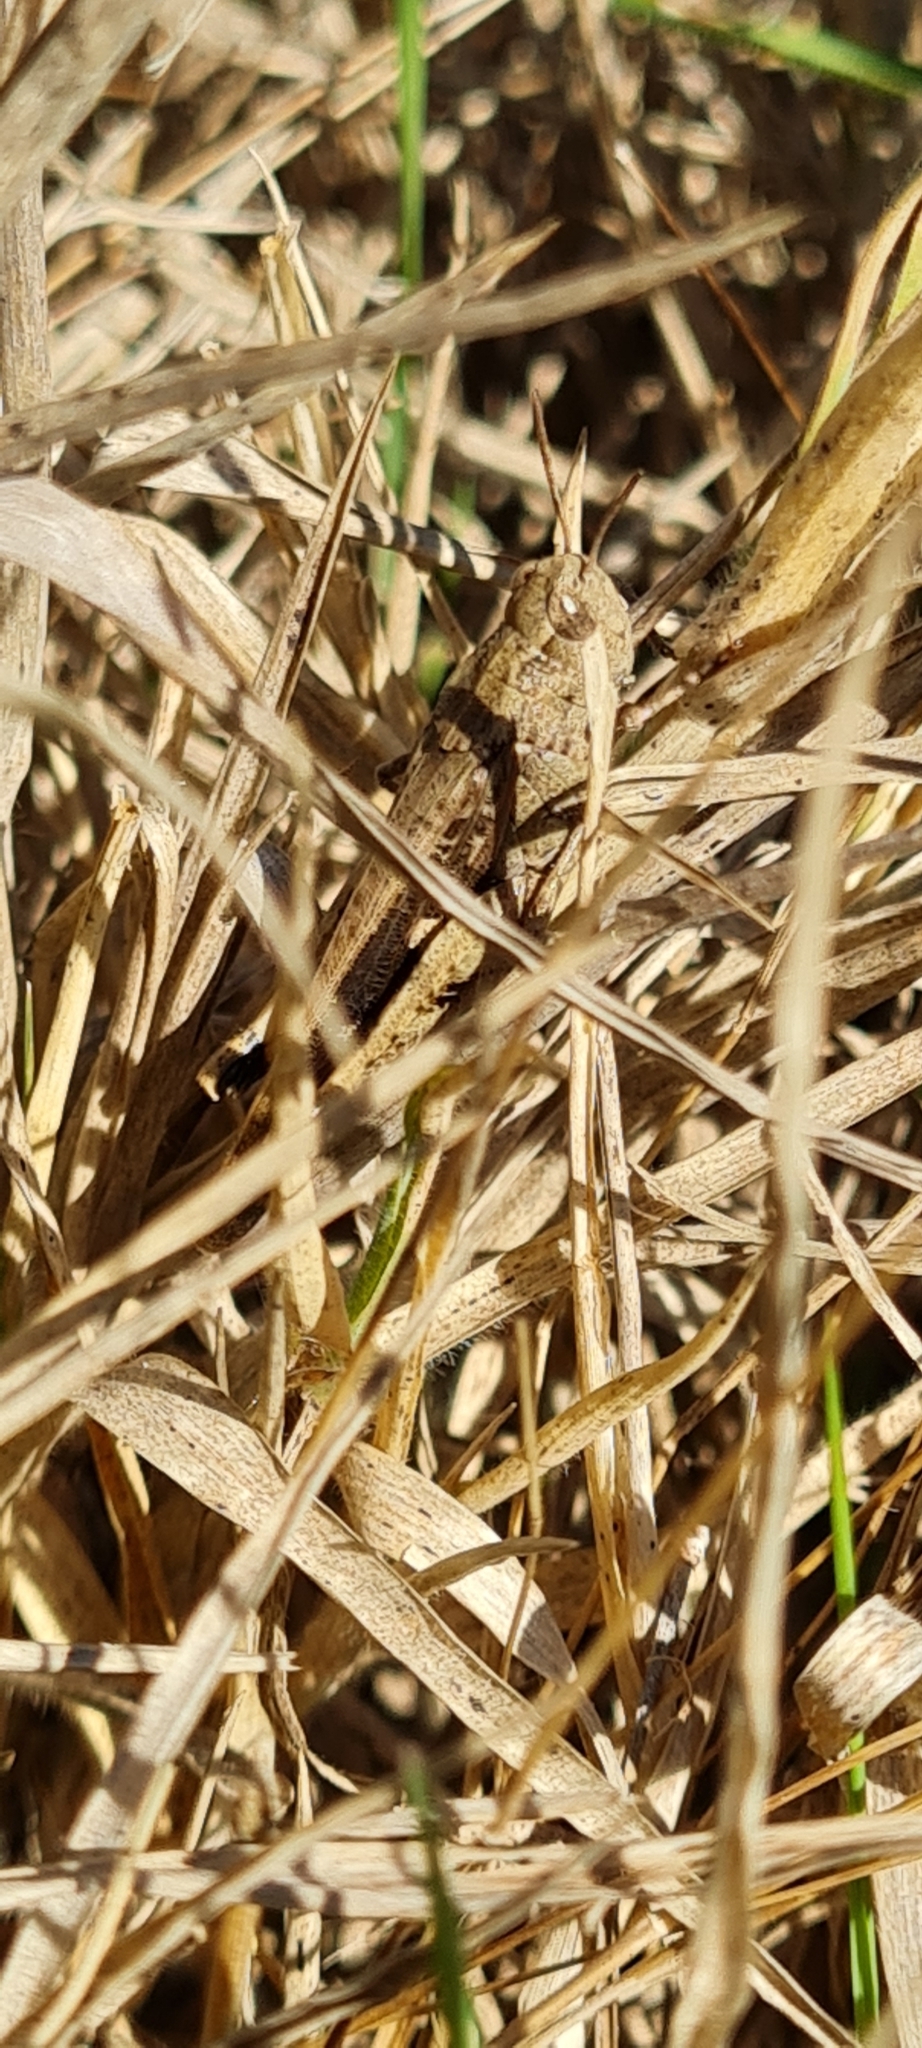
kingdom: Animalia
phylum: Arthropoda
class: Insecta
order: Orthoptera
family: Acrididae
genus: Aiolopus
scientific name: Aiolopus strepens
